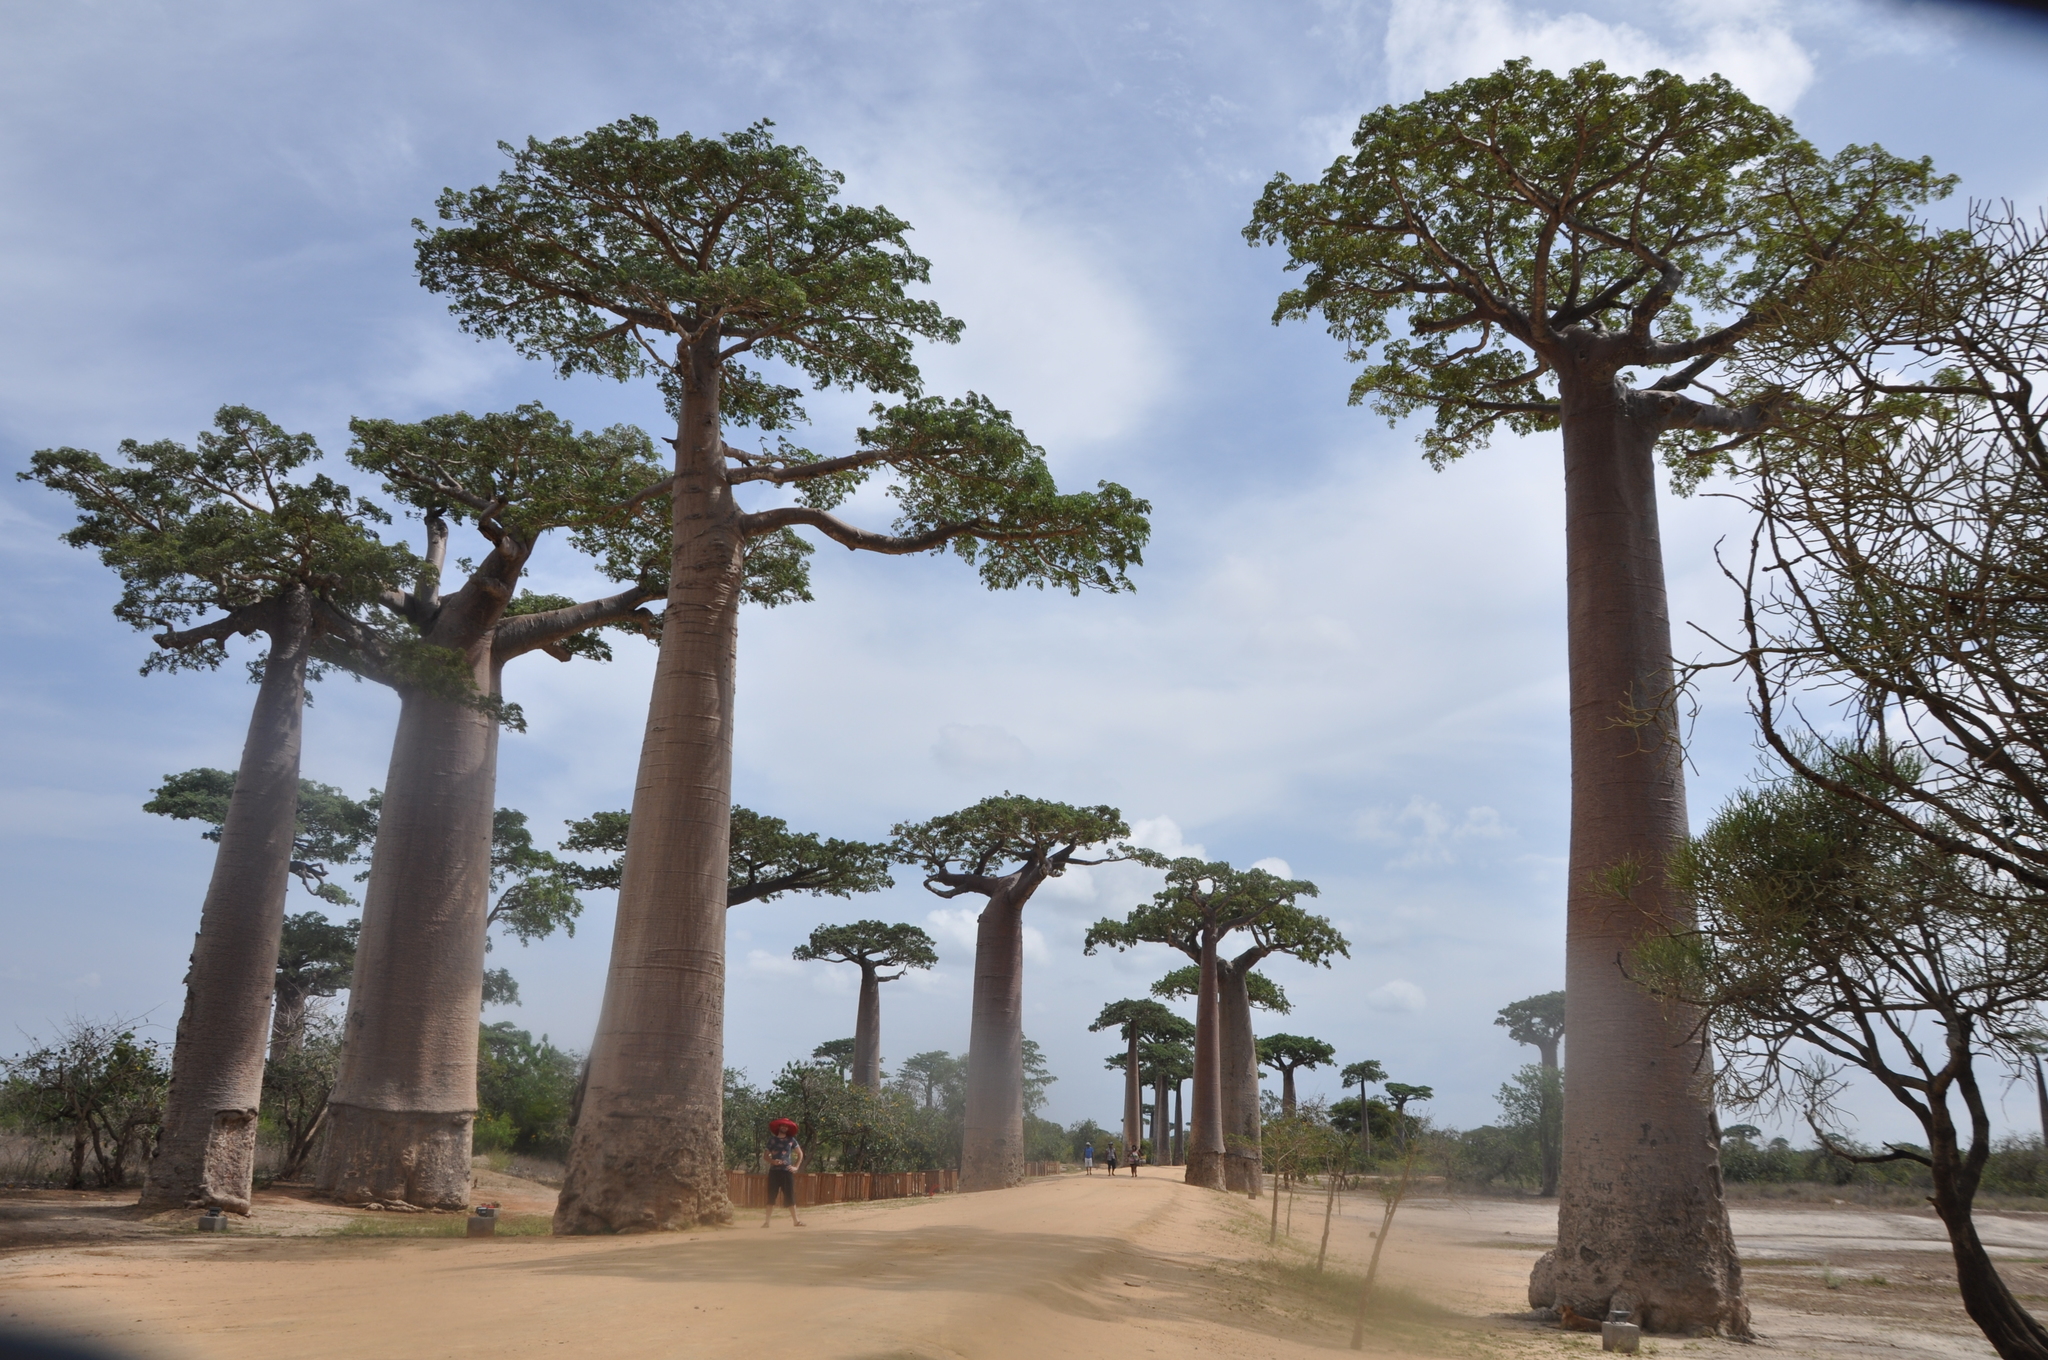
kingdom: Plantae
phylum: Tracheophyta
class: Magnoliopsida
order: Malvales
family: Malvaceae
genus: Adansonia
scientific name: Adansonia grandidieri
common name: Grandidier's baobab
